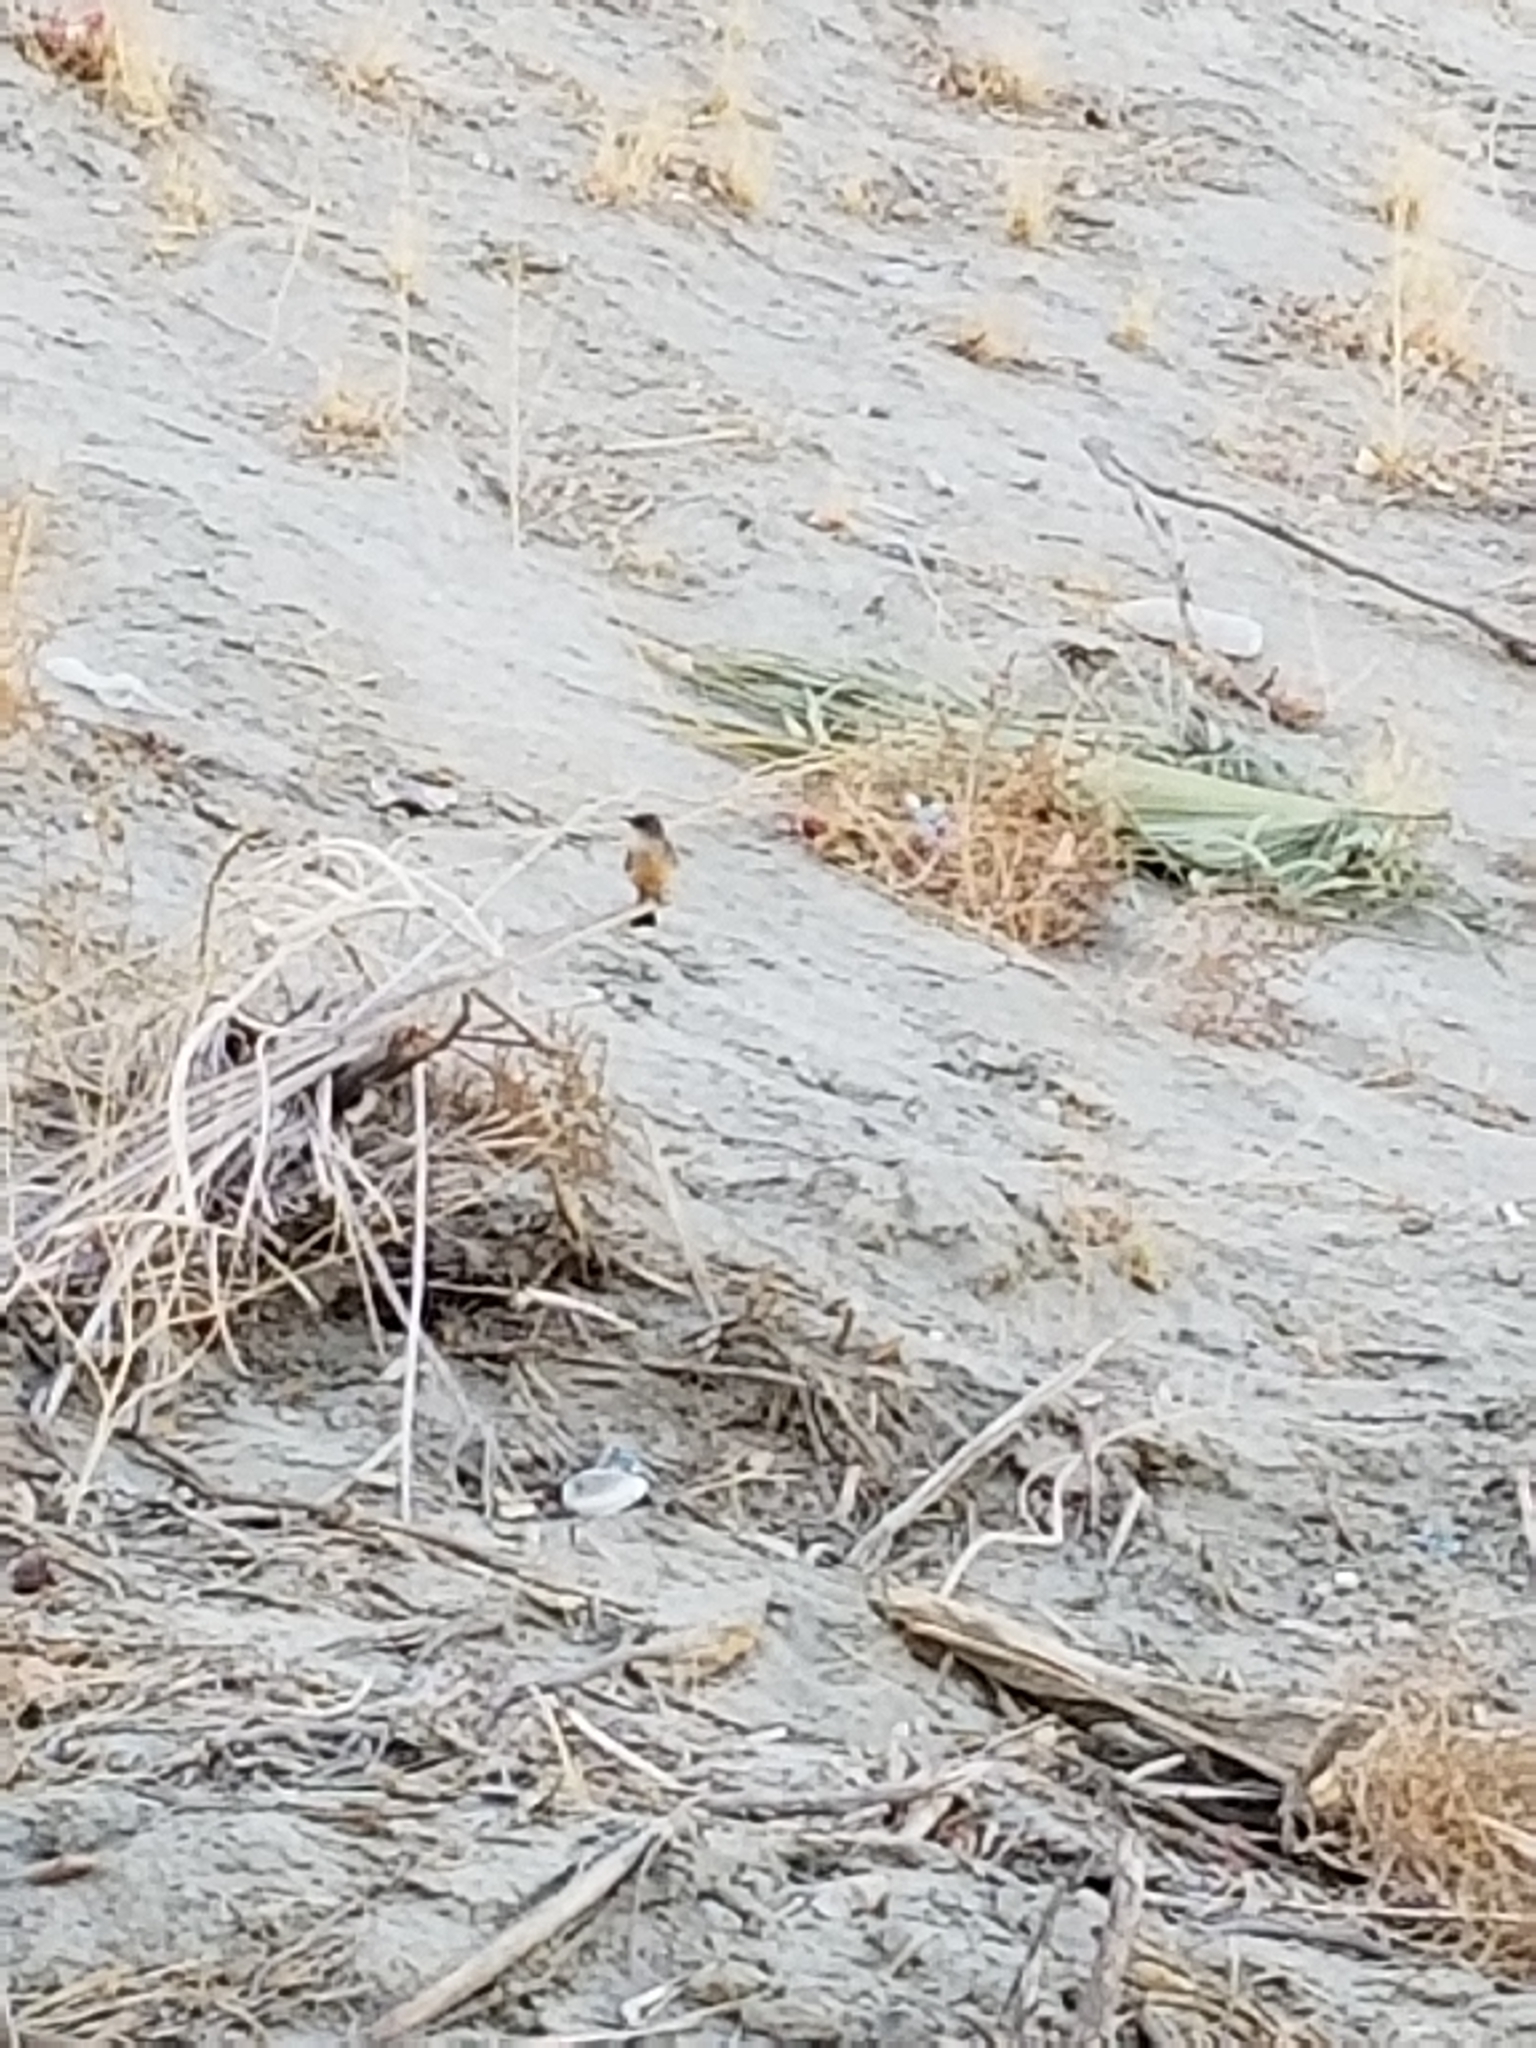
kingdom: Animalia
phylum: Chordata
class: Aves
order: Passeriformes
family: Tyrannidae
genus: Sayornis
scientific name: Sayornis saya
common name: Say's phoebe
